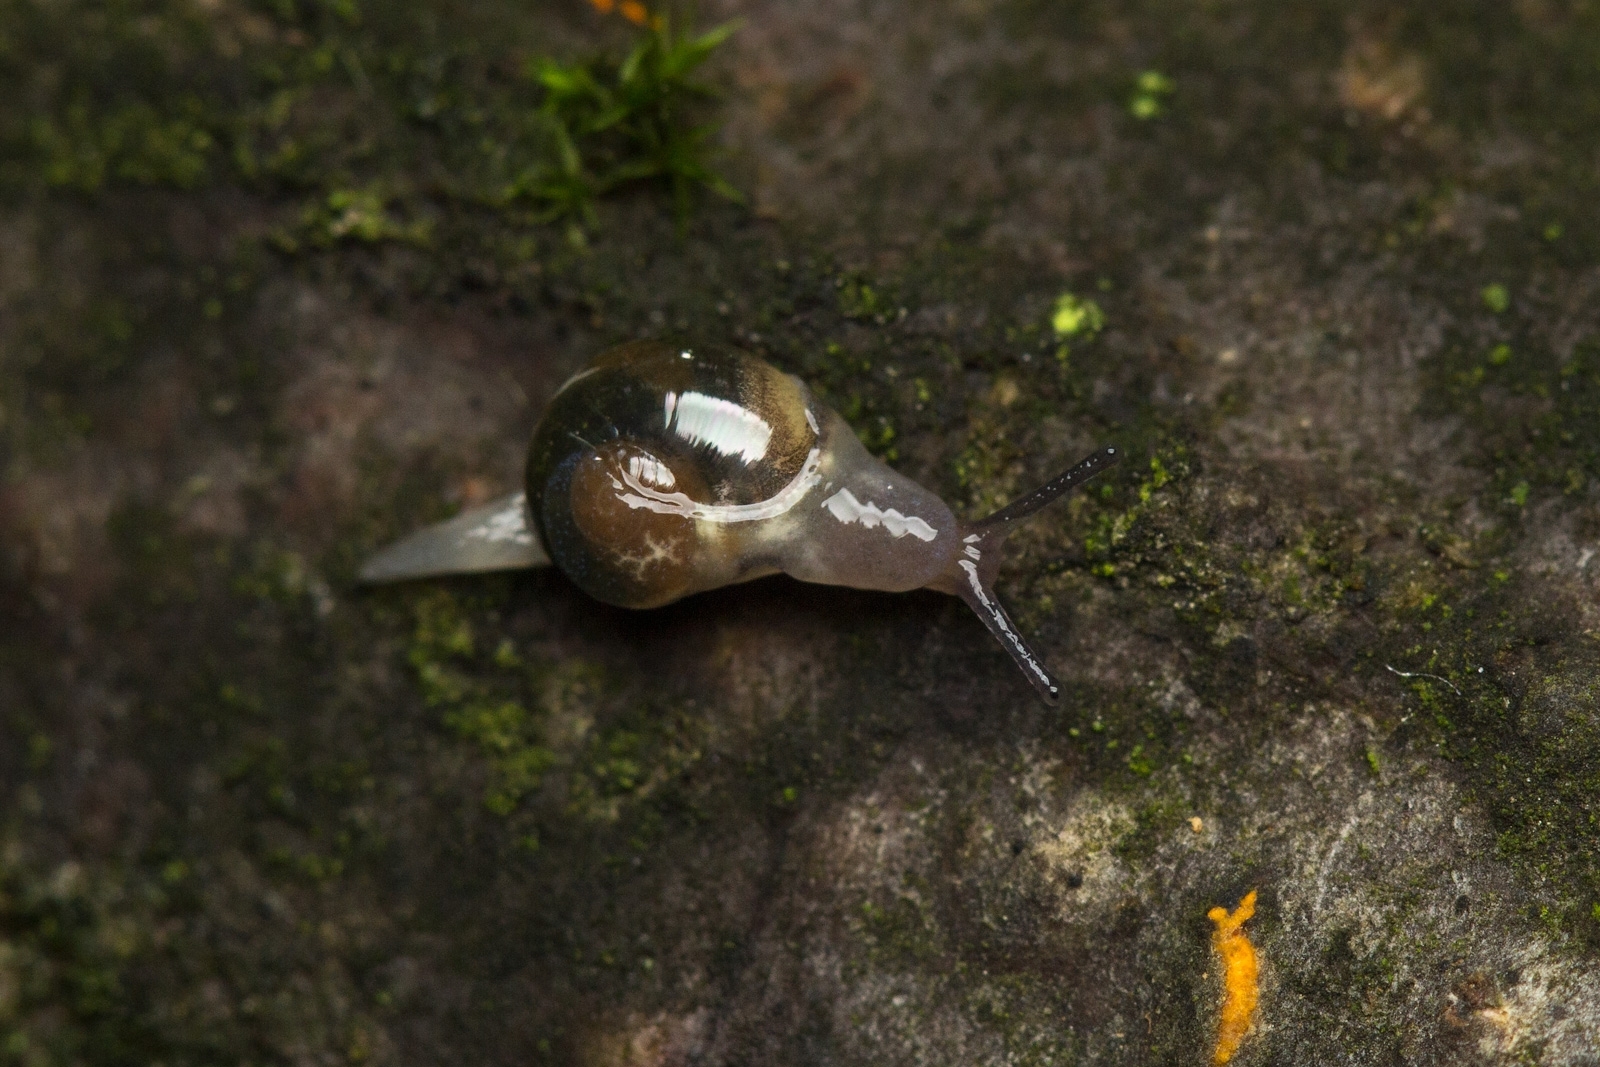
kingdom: Animalia
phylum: Mollusca
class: Gastropoda
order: Stylommatophora
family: Vitrinidae
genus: Vitrina
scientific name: Vitrina pellucida
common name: Pellucid glass snail
